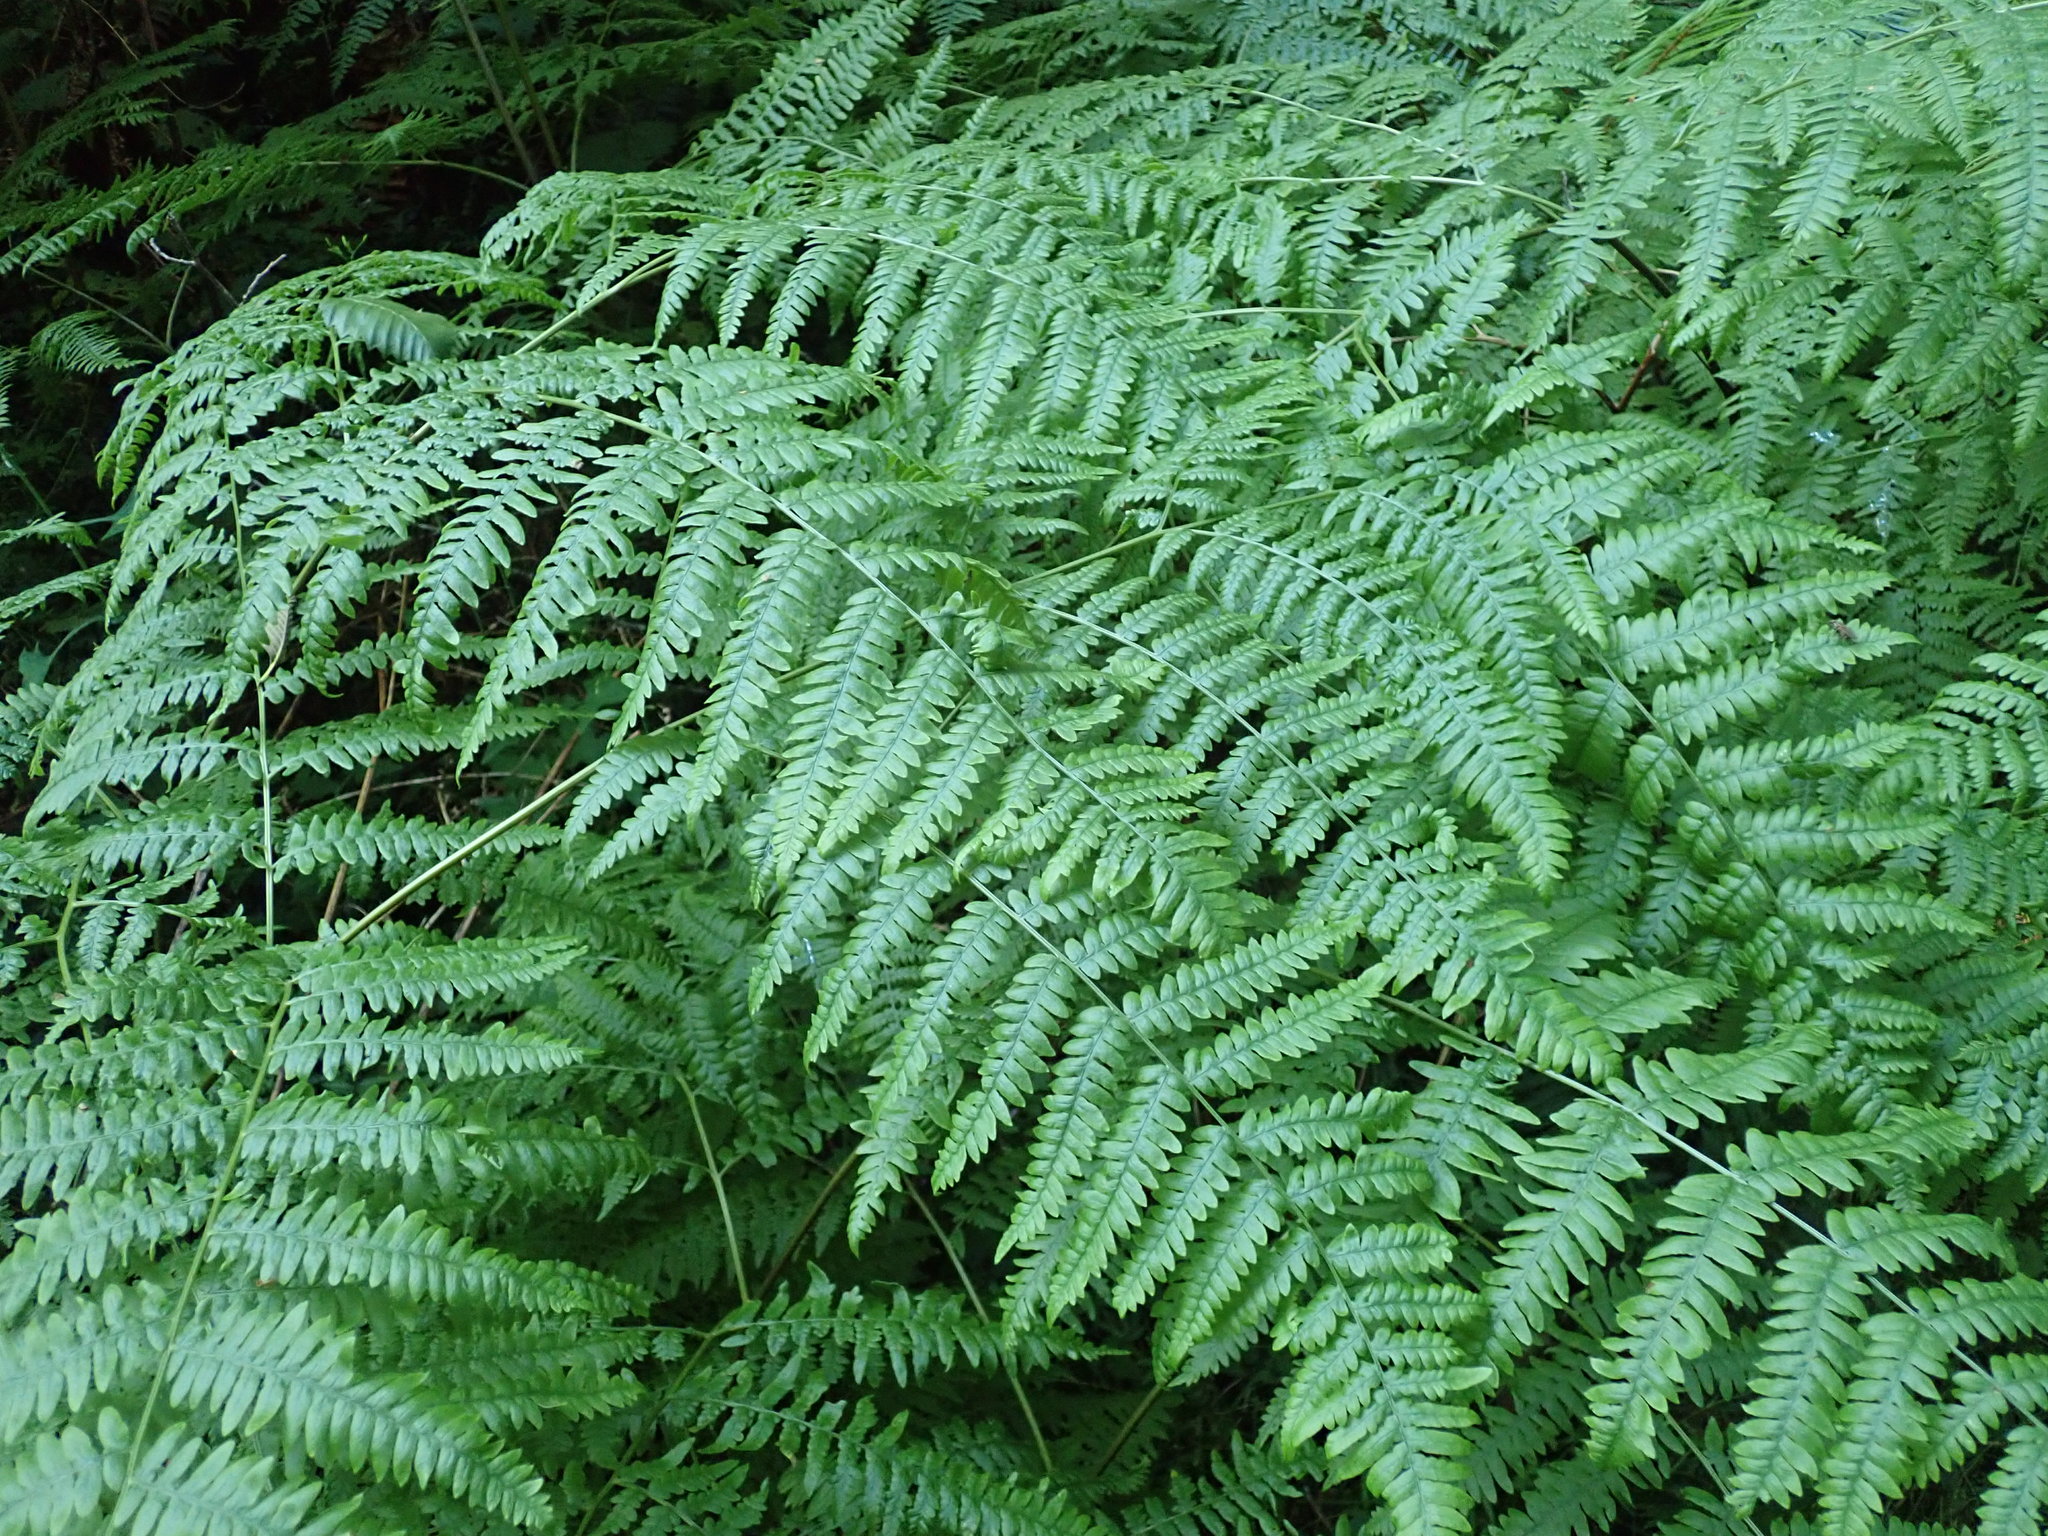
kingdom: Plantae
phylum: Tracheophyta
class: Polypodiopsida
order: Polypodiales
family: Dennstaedtiaceae
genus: Pteridium
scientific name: Pteridium aquilinum
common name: Bracken
